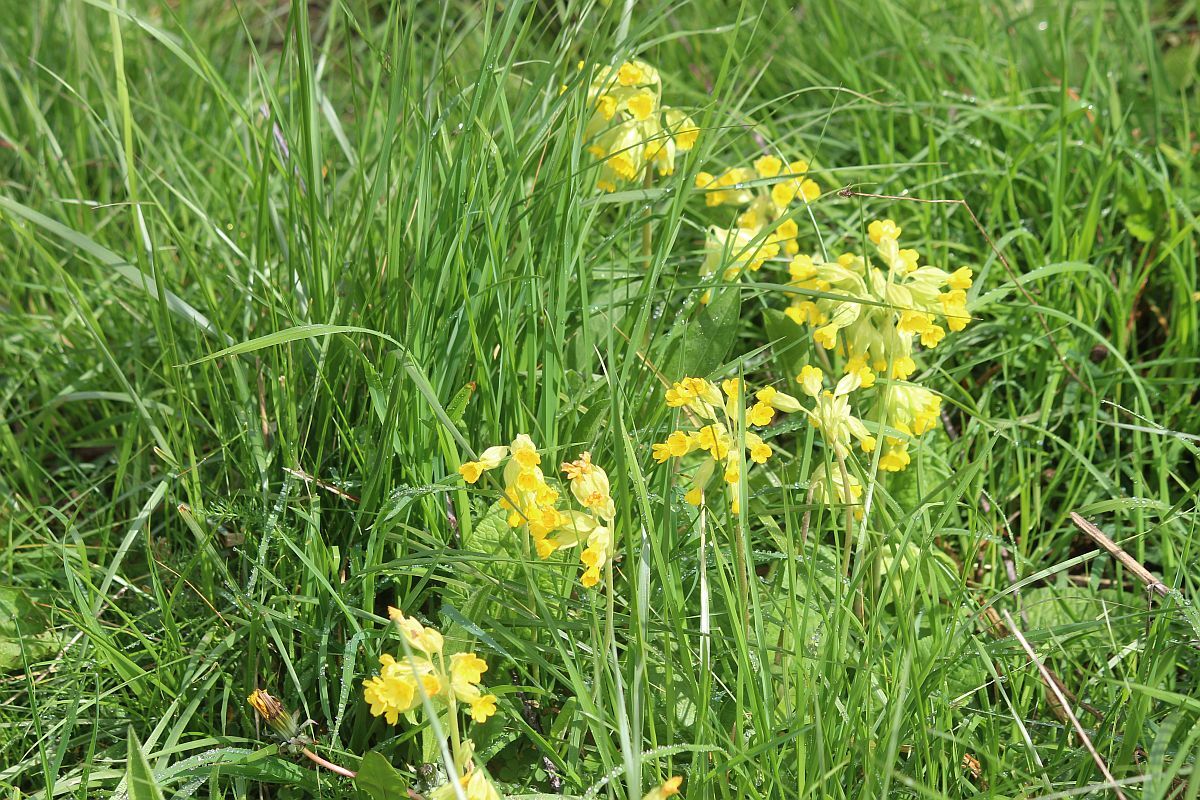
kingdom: Plantae
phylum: Tracheophyta
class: Magnoliopsida
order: Ericales
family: Primulaceae
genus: Primula
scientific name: Primula veris
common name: Cowslip
